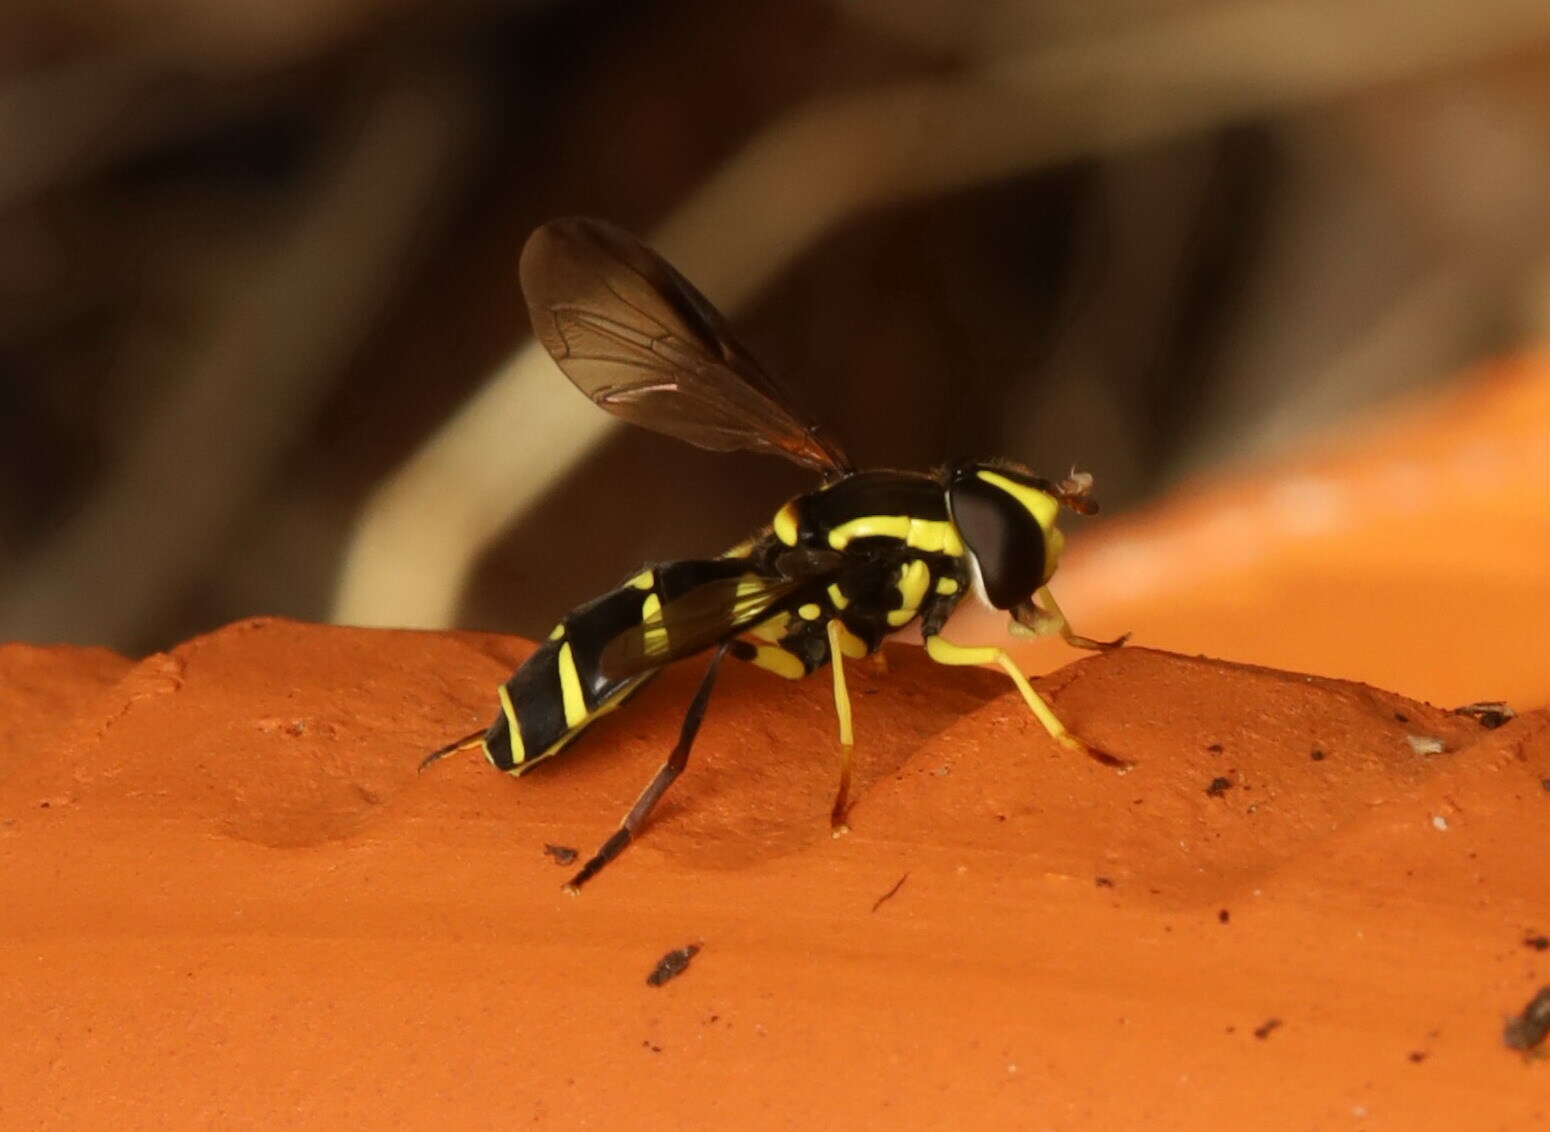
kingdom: Animalia
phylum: Arthropoda
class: Insecta
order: Diptera
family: Syrphidae
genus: Philhelius
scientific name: Philhelius dives
